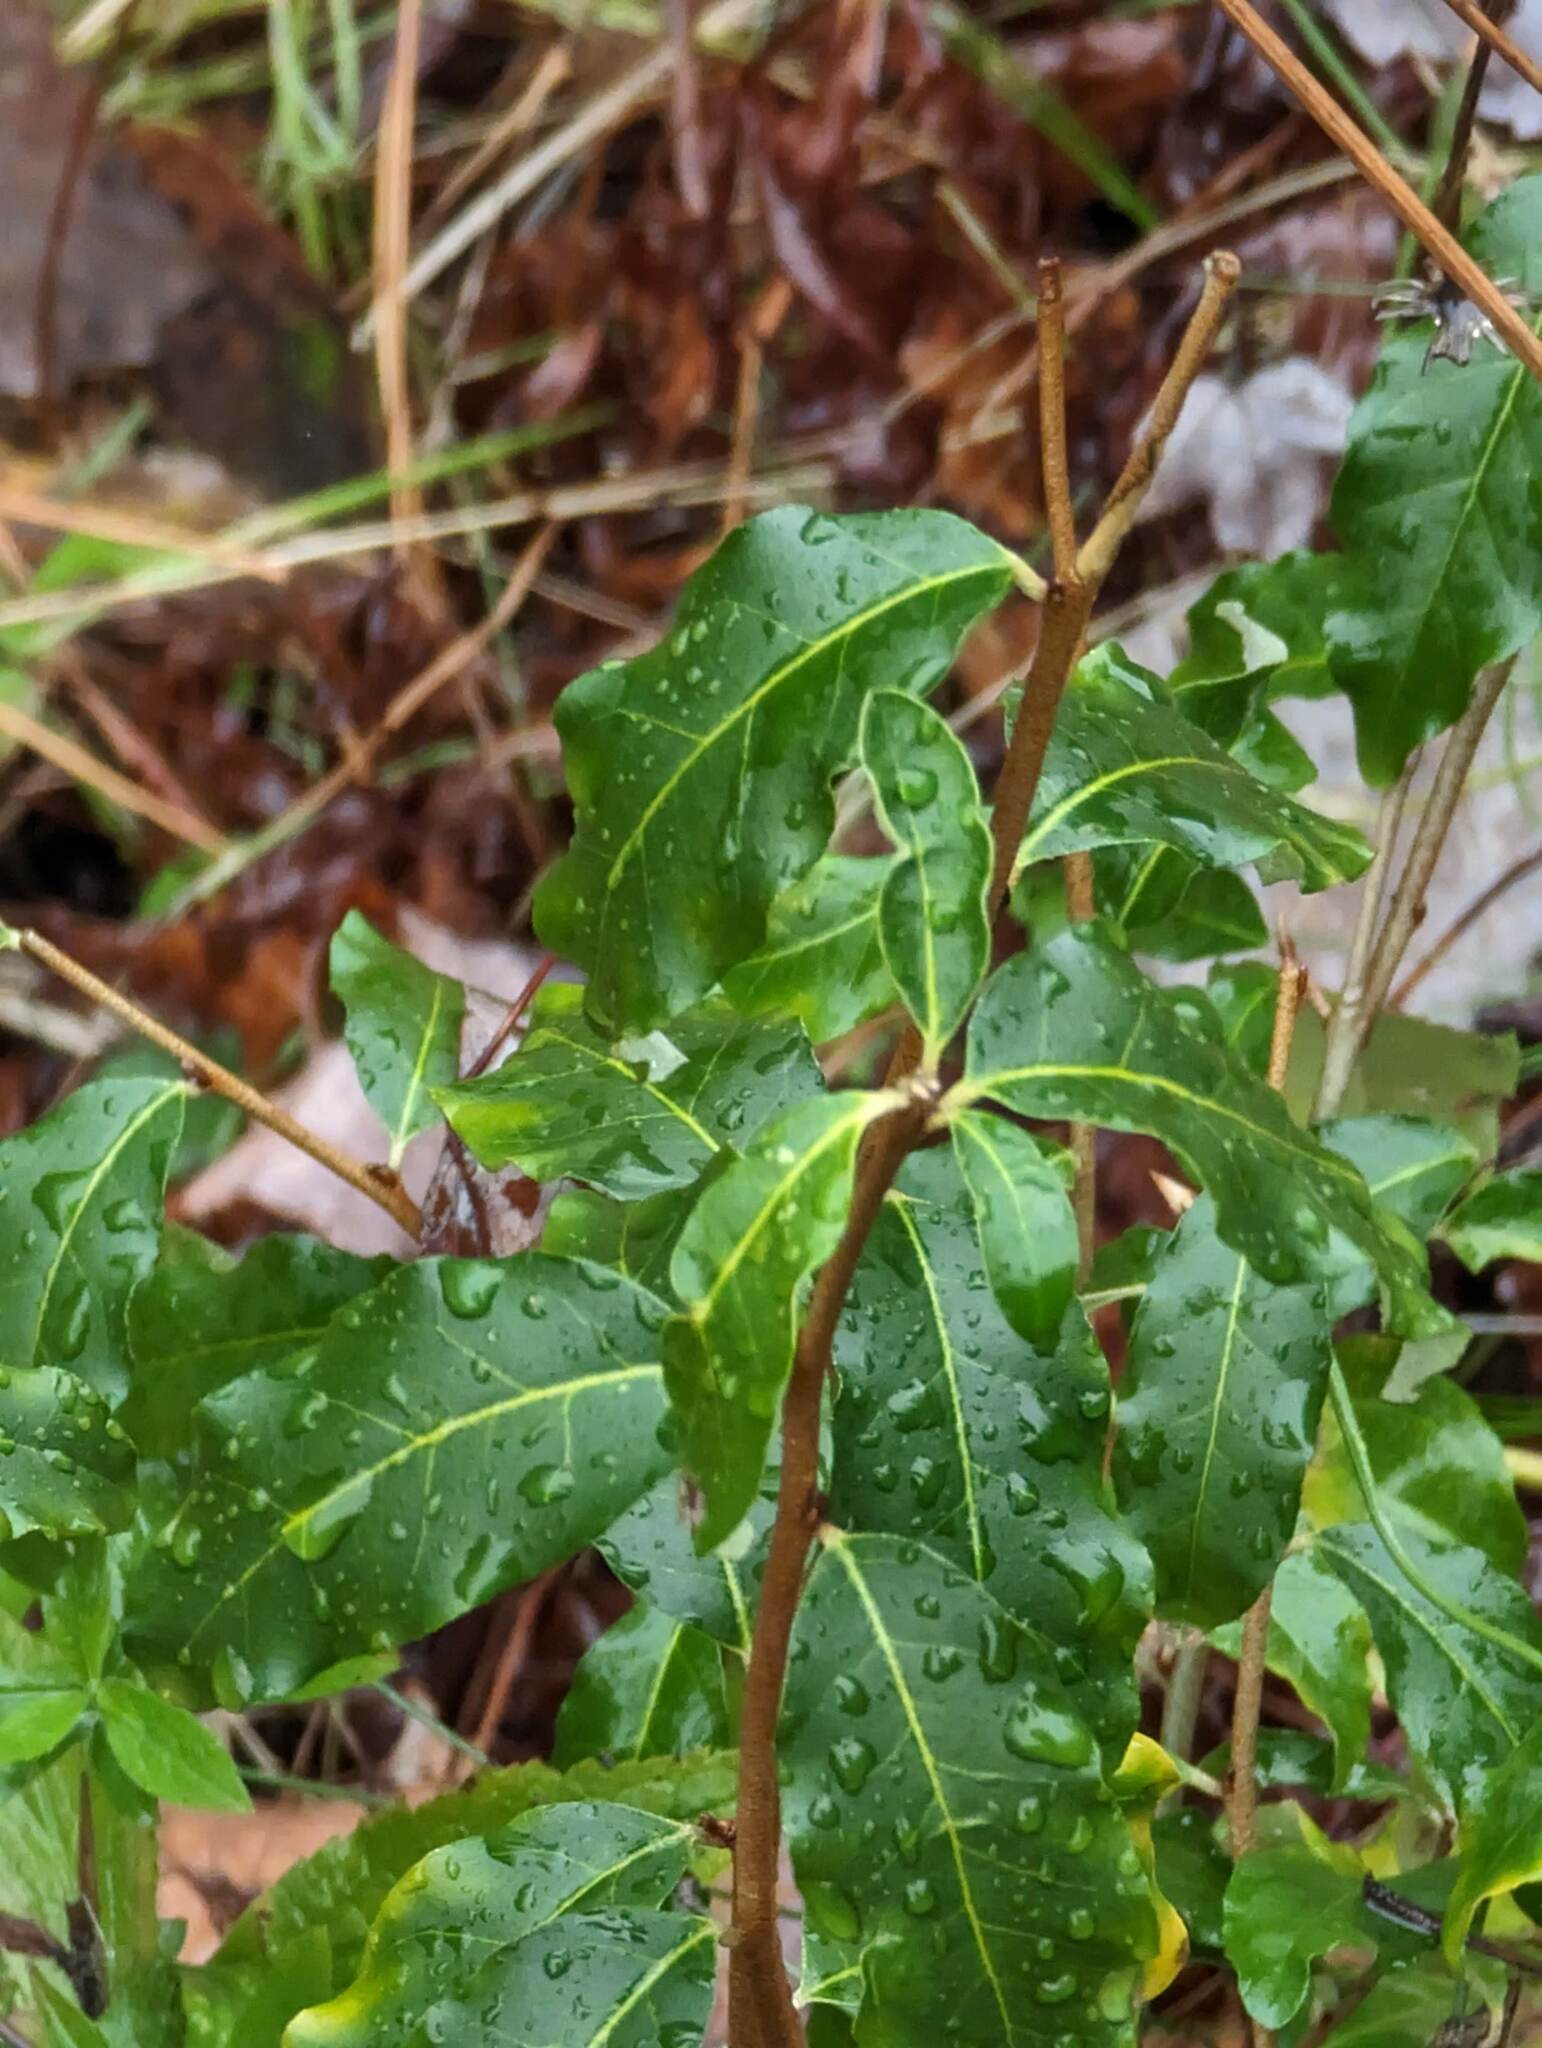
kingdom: Plantae
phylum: Tracheophyta
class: Magnoliopsida
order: Rosales
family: Elaeagnaceae
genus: Elaeagnus
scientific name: Elaeagnus umbellata
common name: Autumn olive
